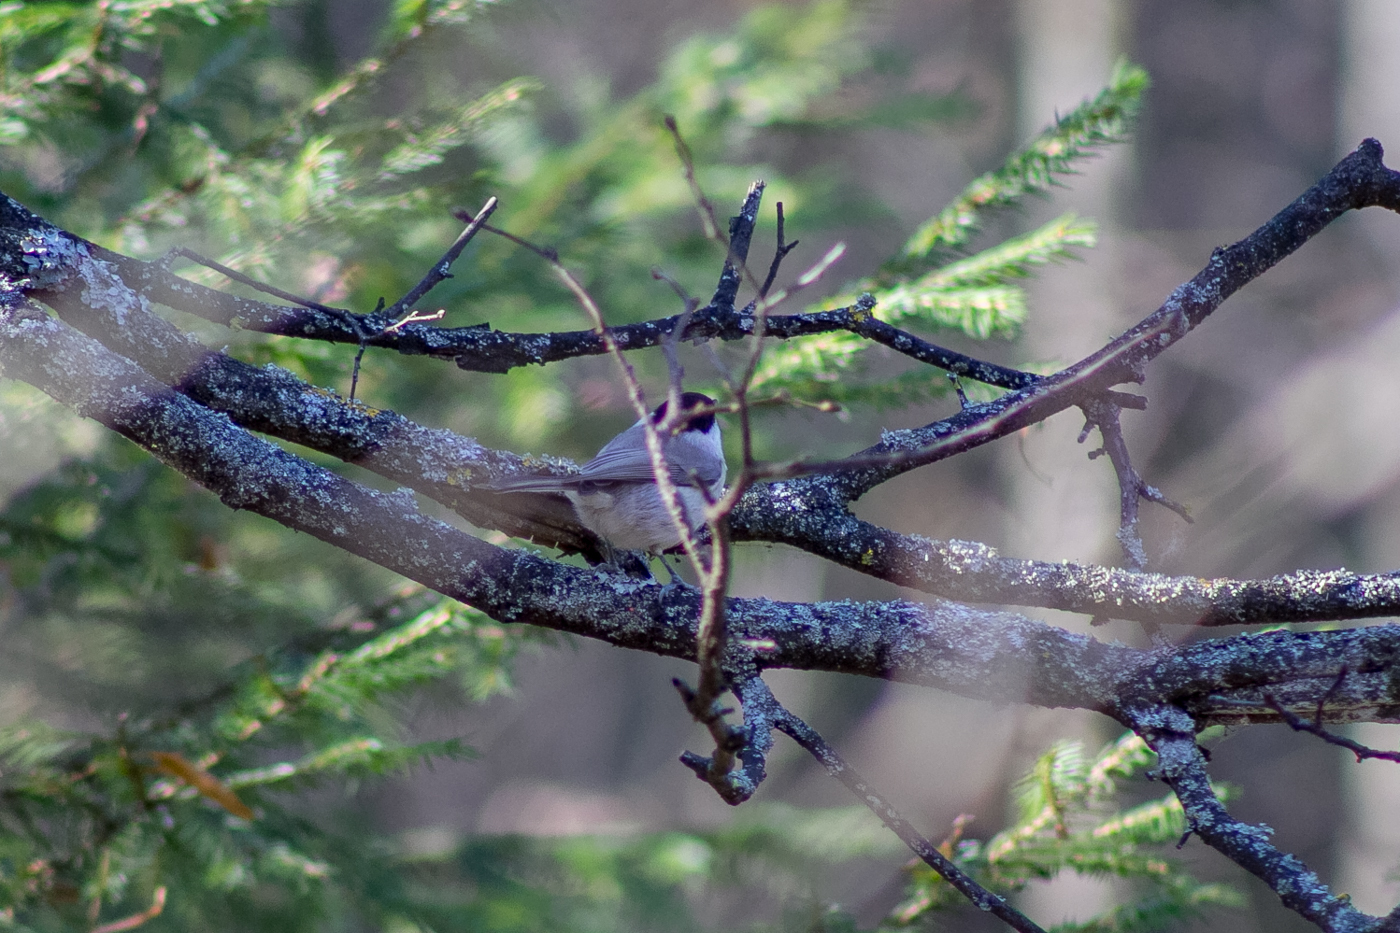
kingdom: Animalia
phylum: Chordata
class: Aves
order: Passeriformes
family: Paridae
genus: Poecile
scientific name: Poecile palustris
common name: Marsh tit
